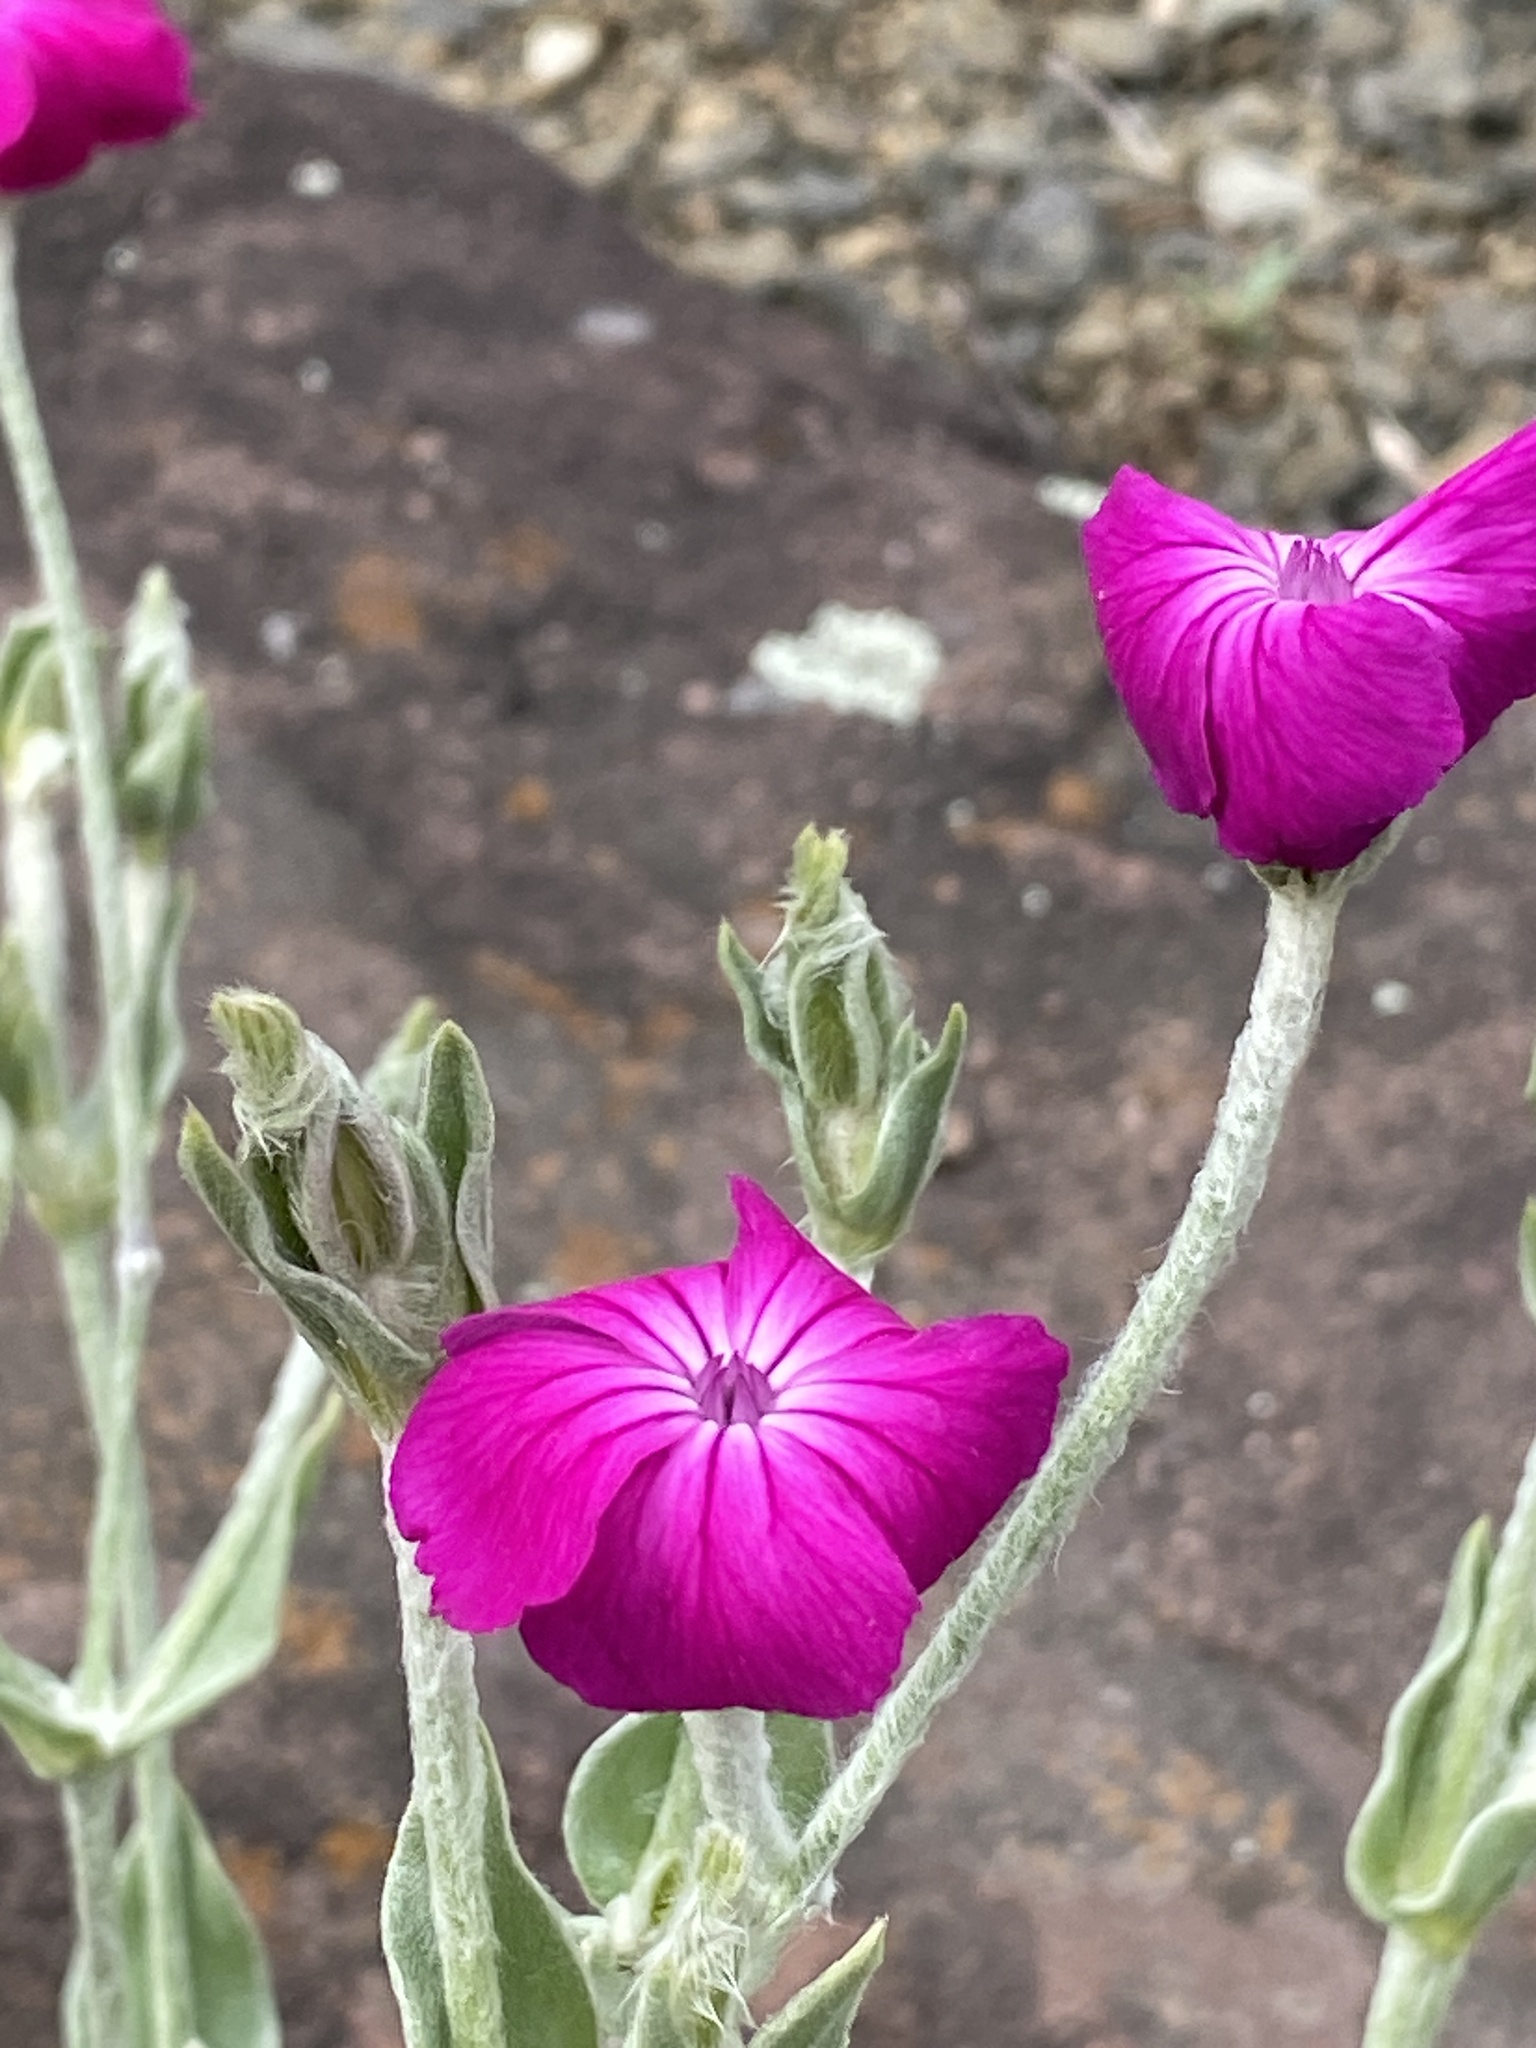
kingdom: Plantae
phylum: Tracheophyta
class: Magnoliopsida
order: Caryophyllales
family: Caryophyllaceae
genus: Silene
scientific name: Silene coronaria
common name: Rose campion
